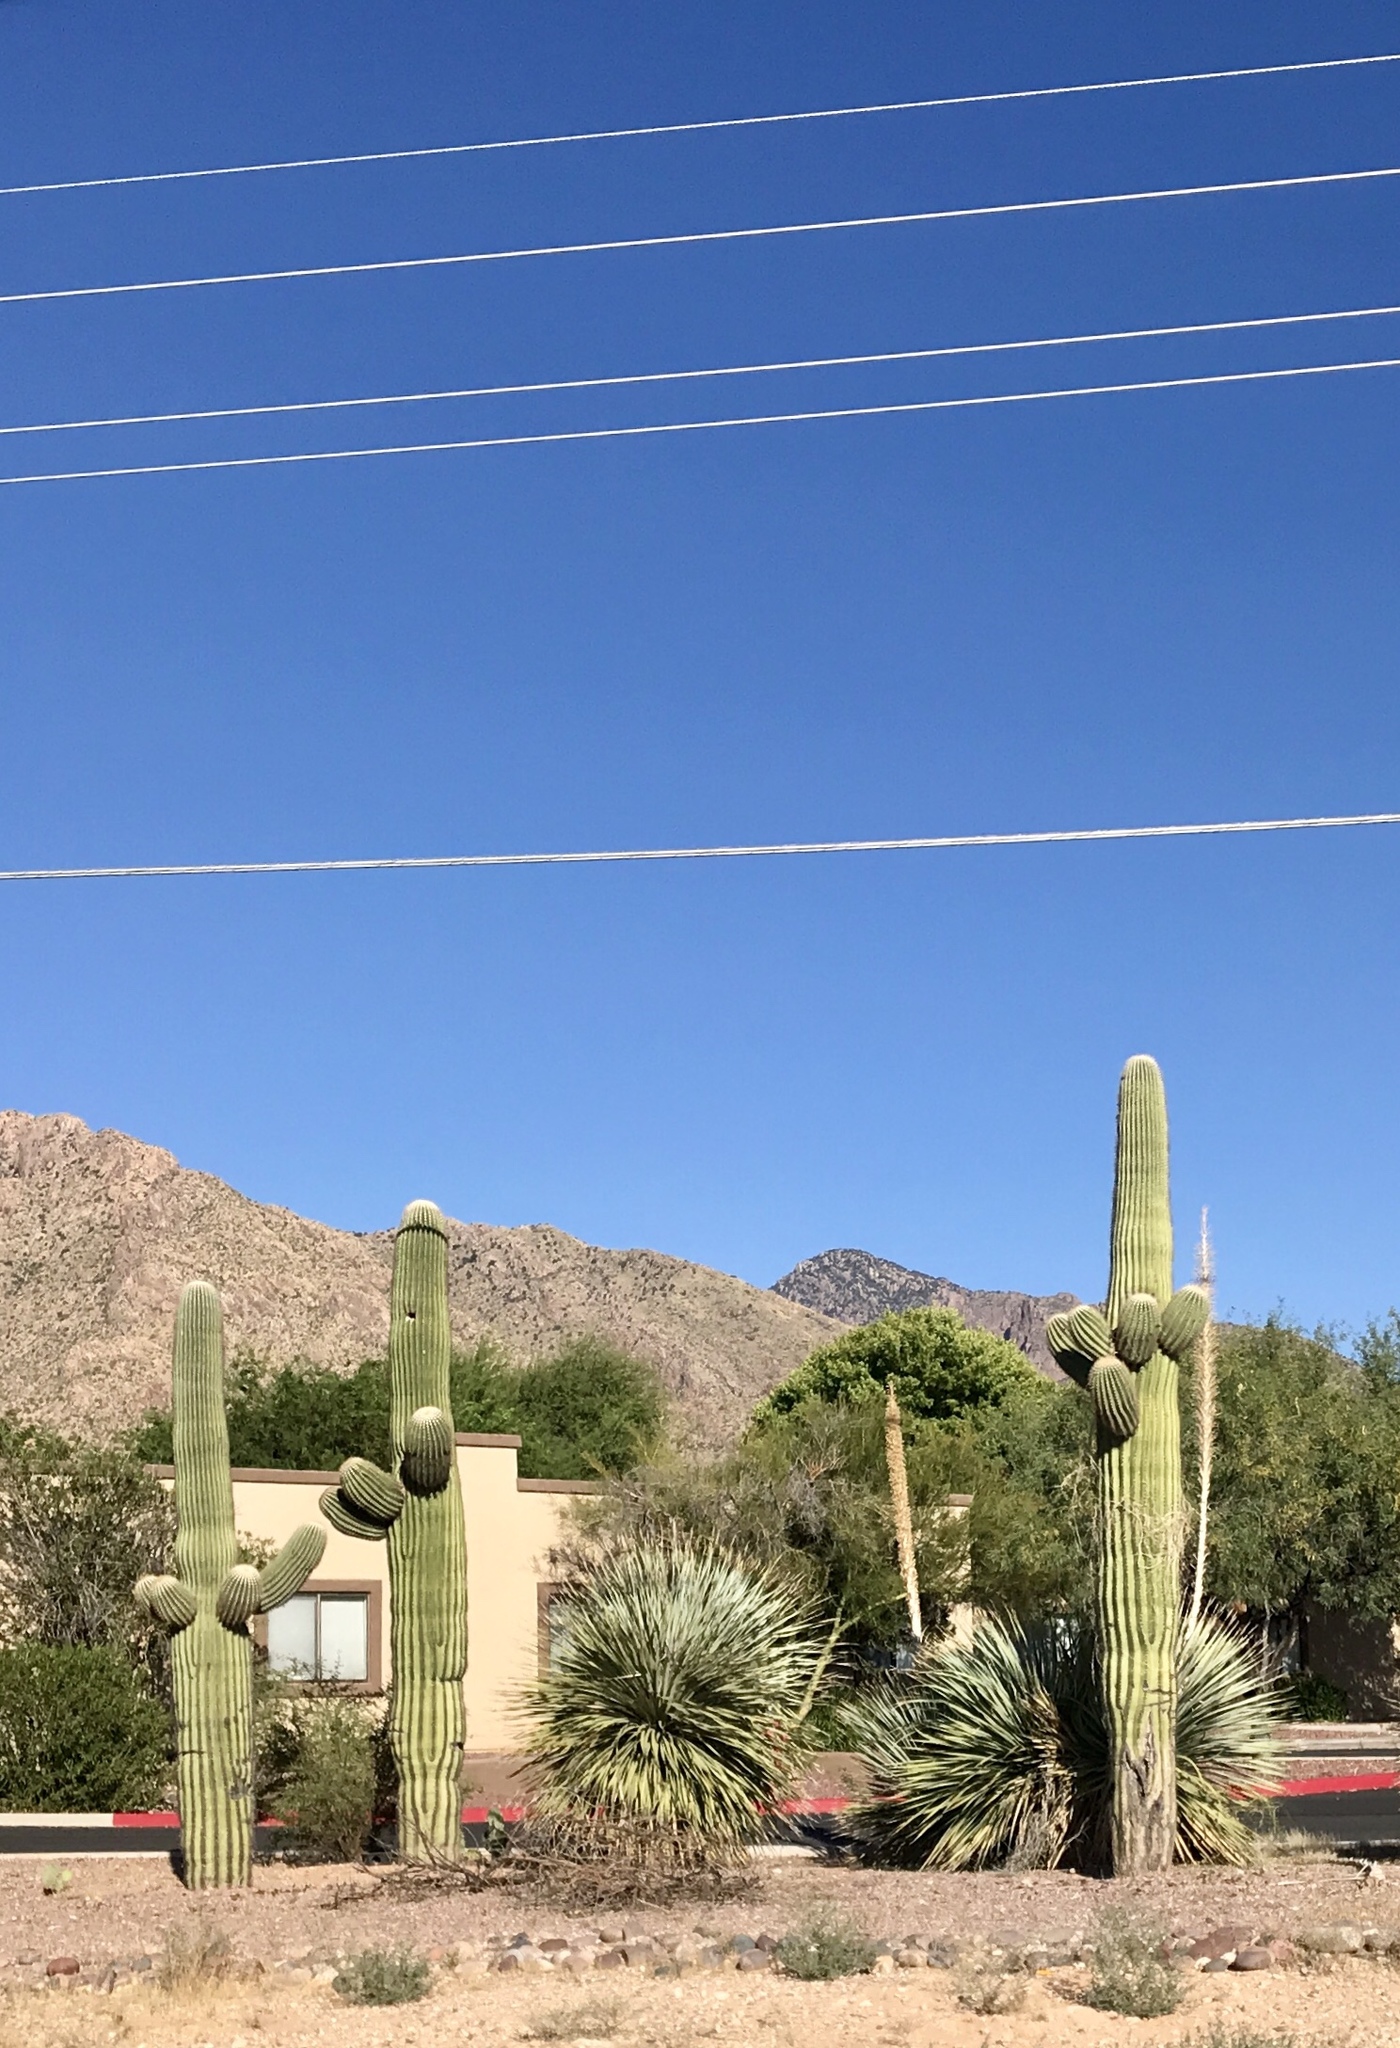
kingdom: Plantae
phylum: Tracheophyta
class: Magnoliopsida
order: Caryophyllales
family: Cactaceae
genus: Carnegiea
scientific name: Carnegiea gigantea
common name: Saguaro
